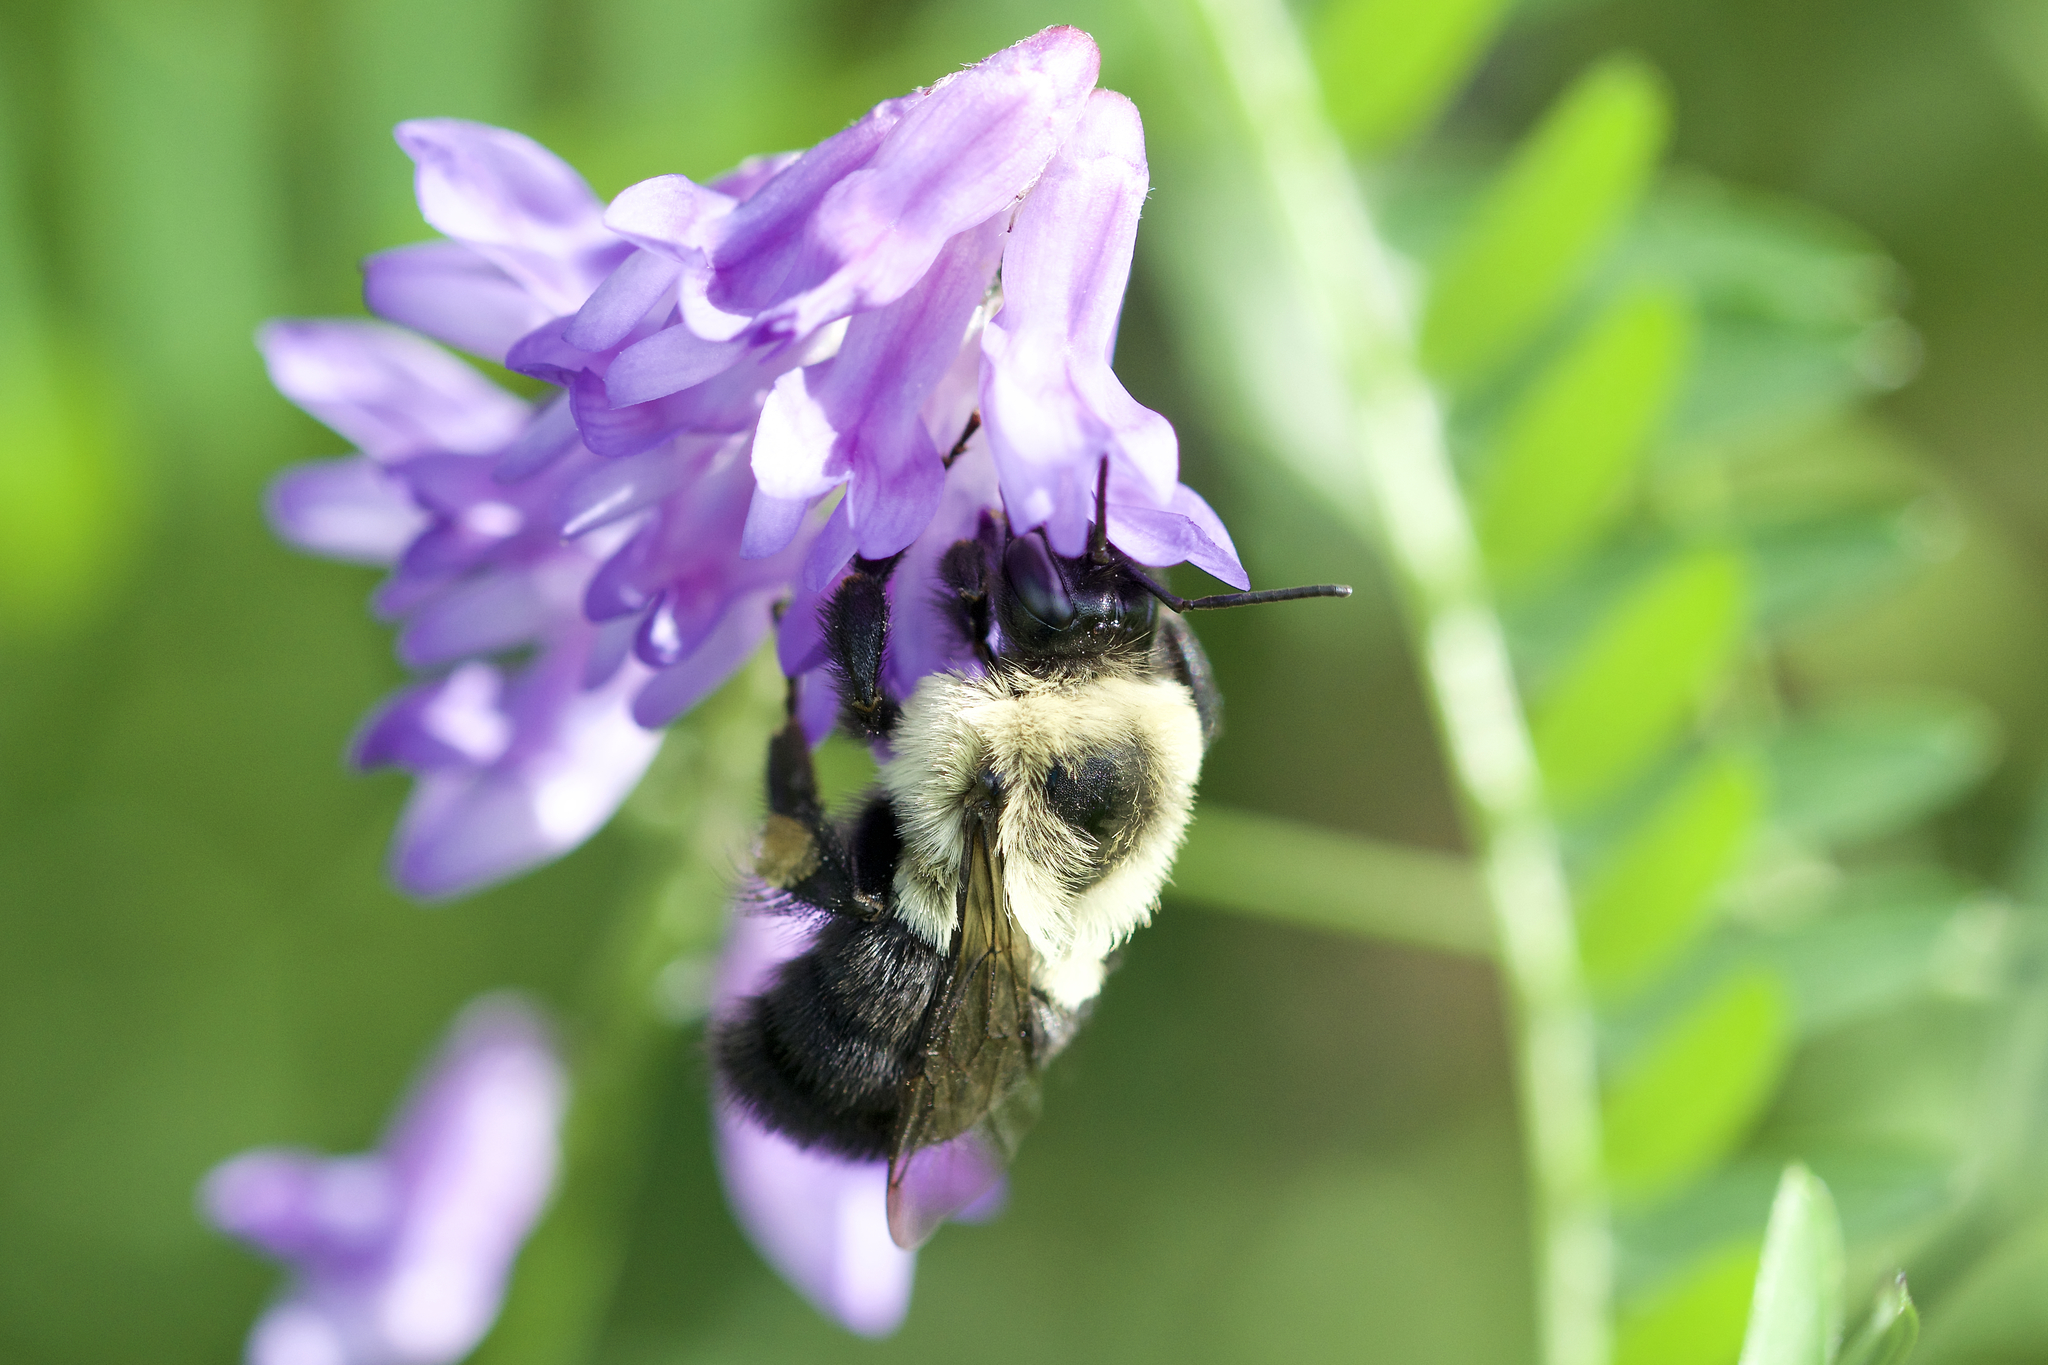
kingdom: Animalia
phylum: Arthropoda
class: Insecta
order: Hymenoptera
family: Apidae
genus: Bombus
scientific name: Bombus impatiens
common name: Common eastern bumble bee
